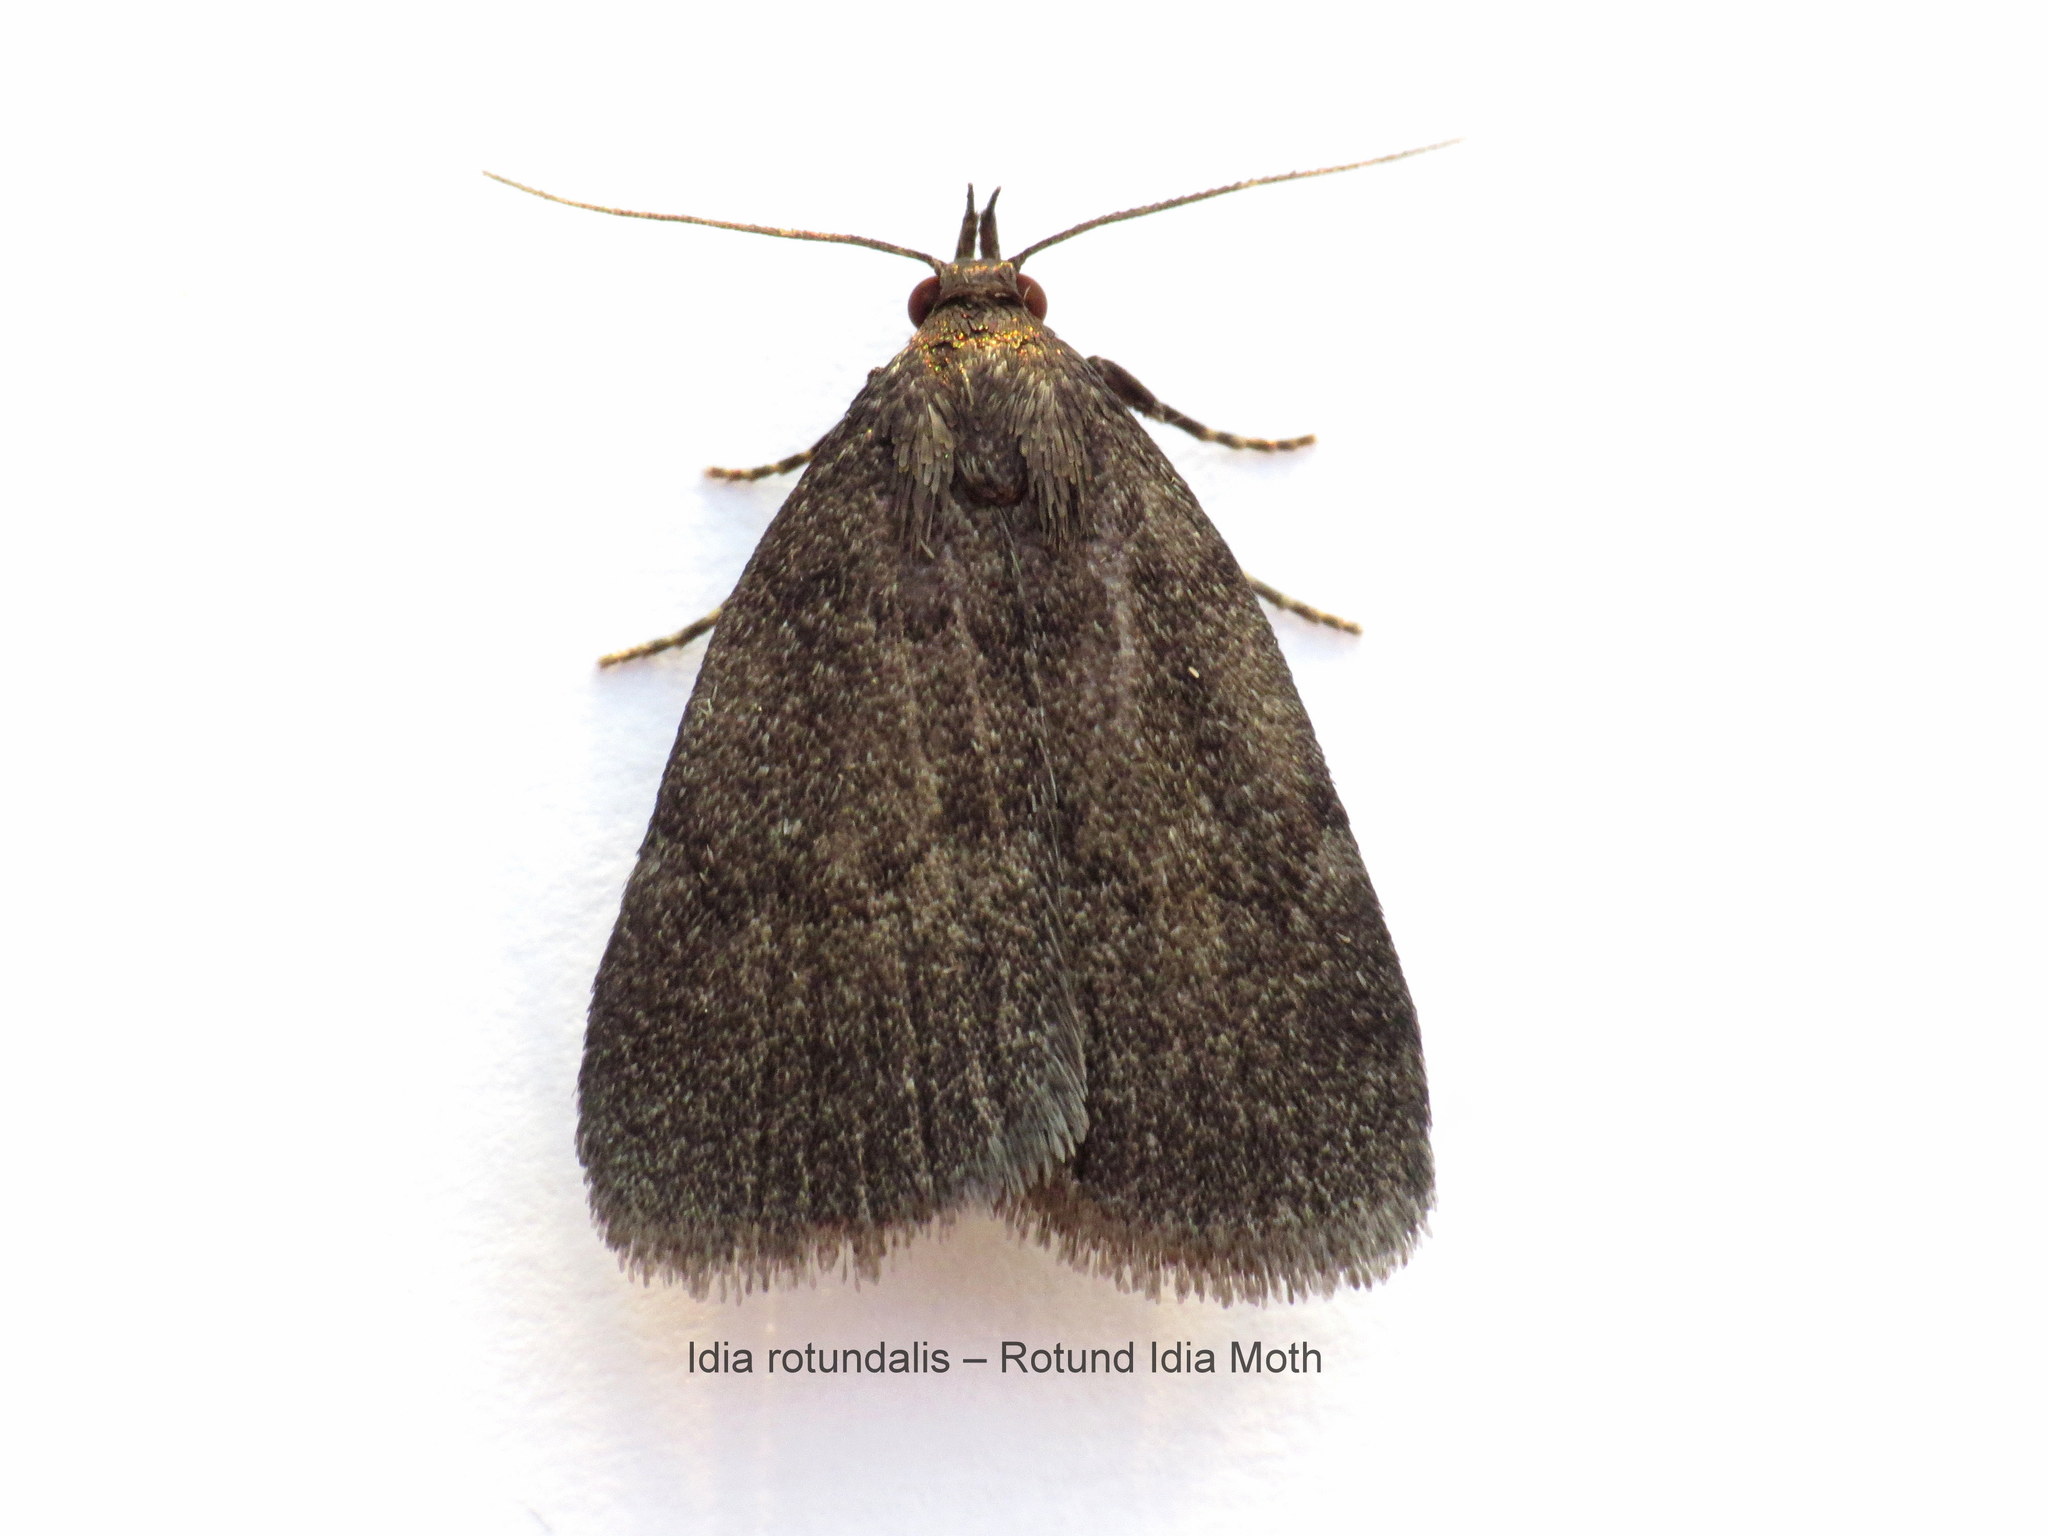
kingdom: Animalia
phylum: Arthropoda
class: Insecta
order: Lepidoptera
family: Erebidae
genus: Idia
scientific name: Idia rotundalis
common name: Rotund idia moth
